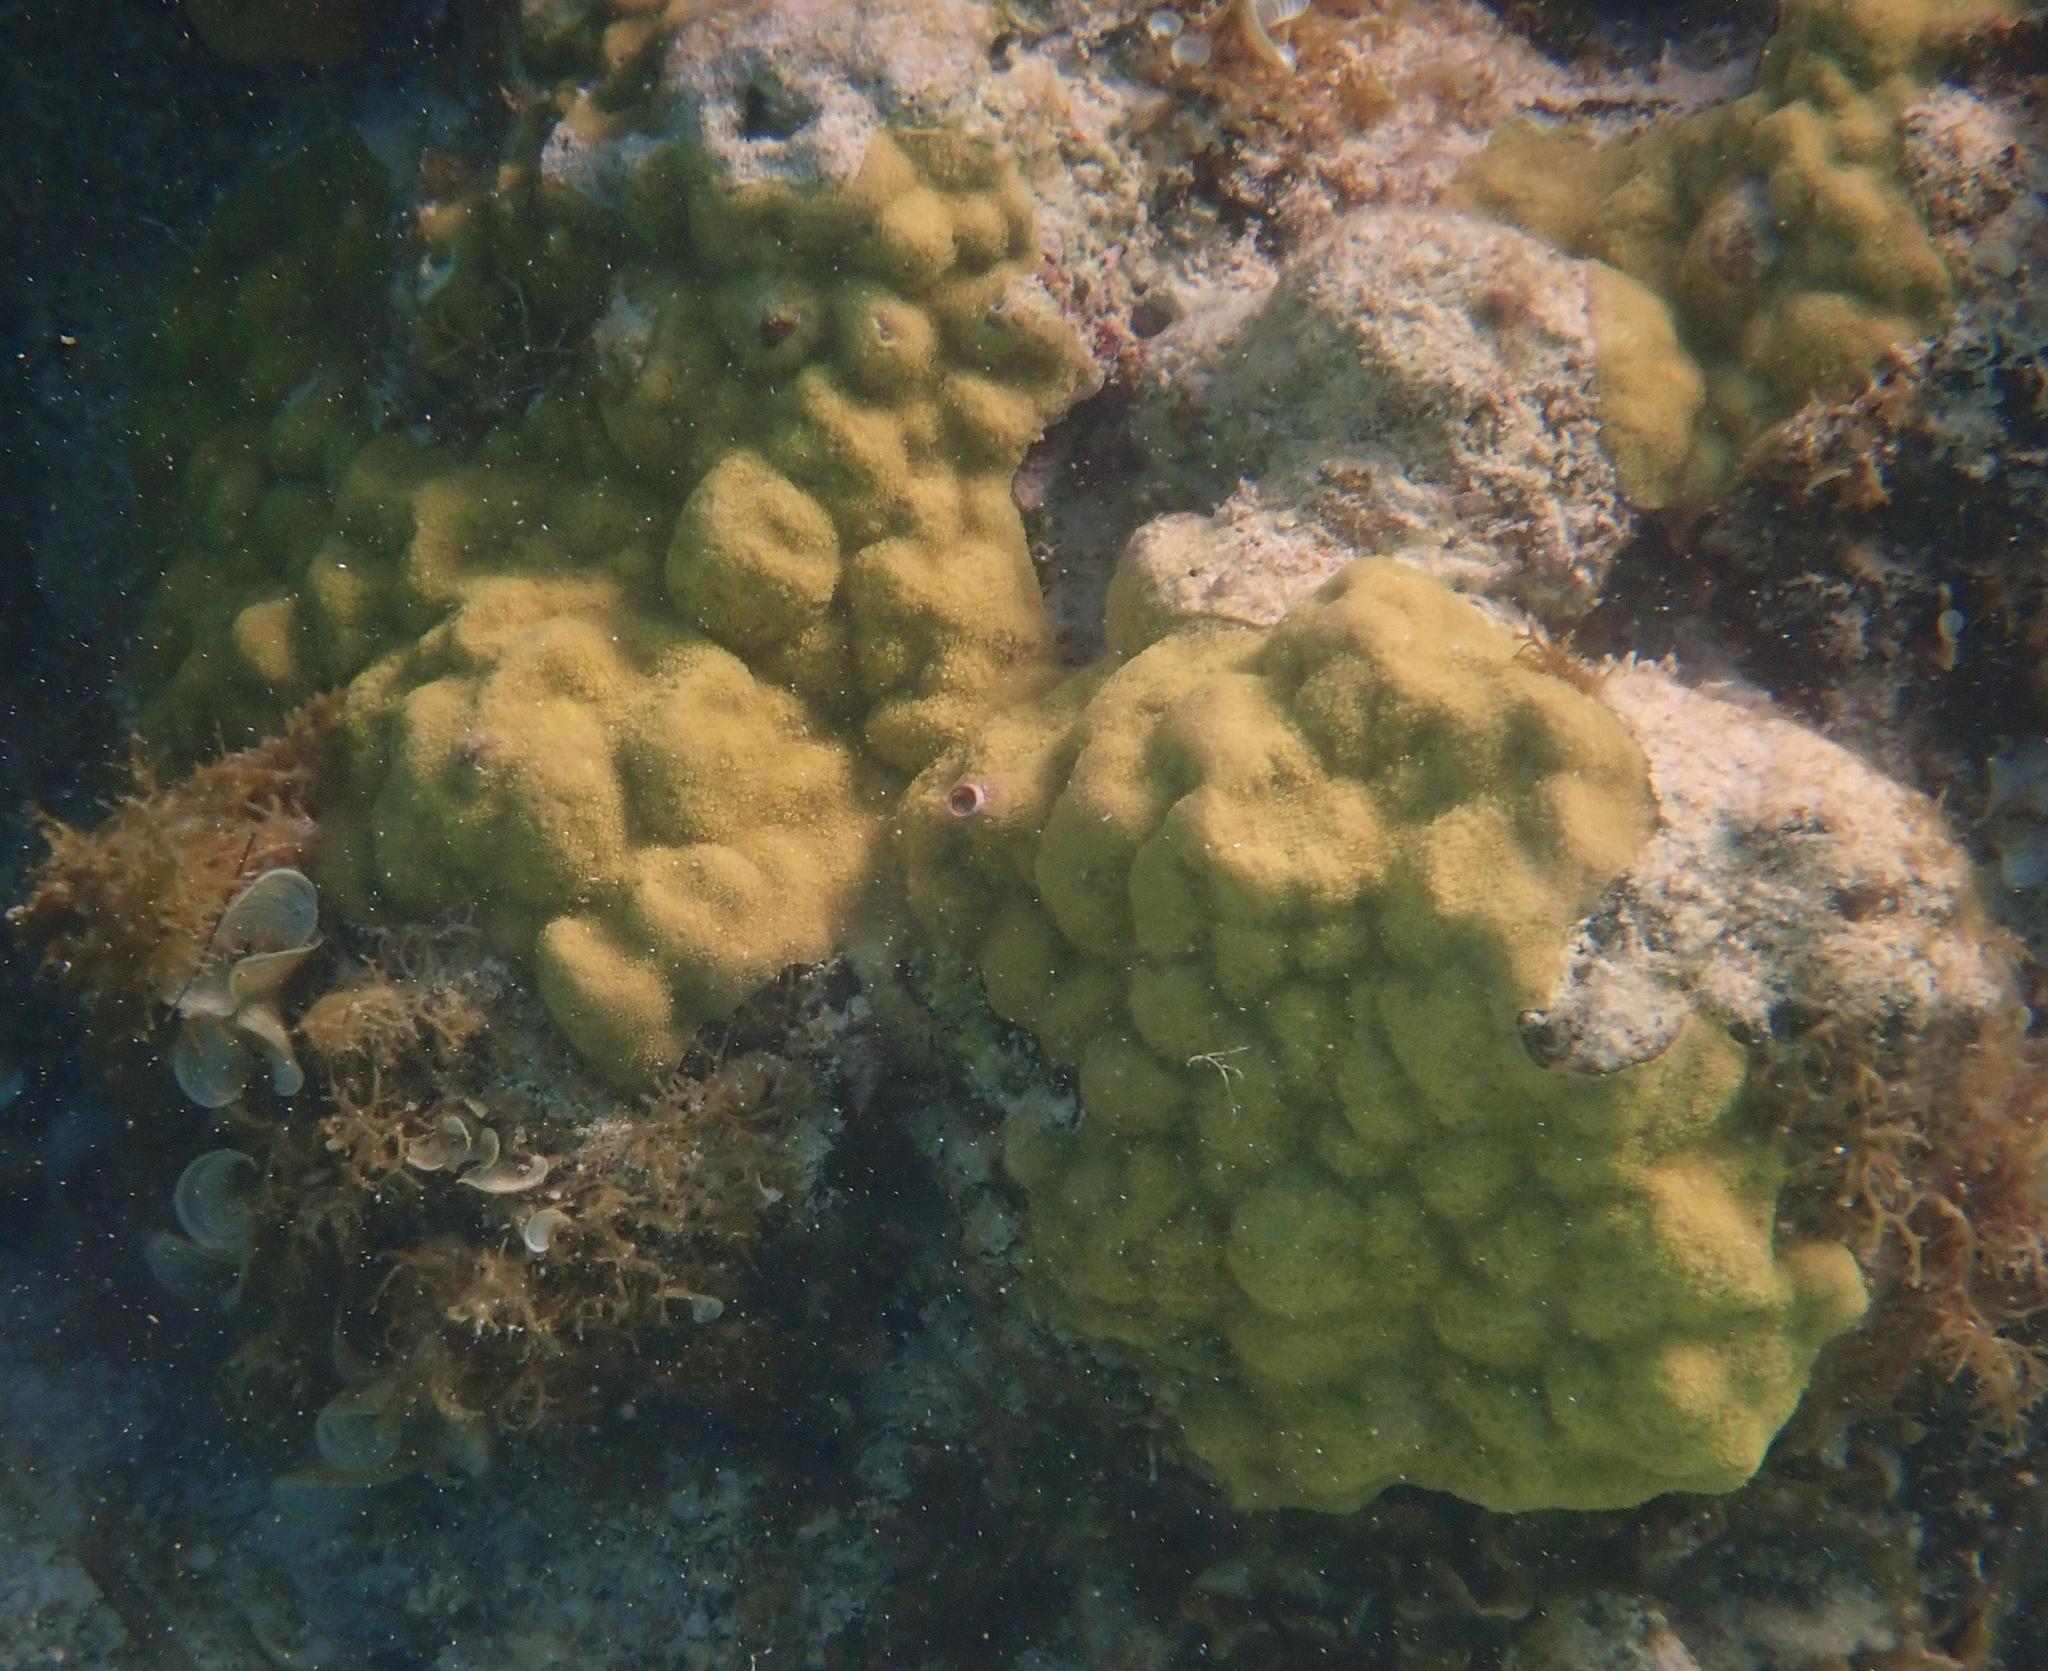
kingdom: Animalia
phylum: Cnidaria
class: Anthozoa
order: Scleractinia
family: Poritidae
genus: Porites
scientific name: Porites astreoides
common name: Mustard hill coral
